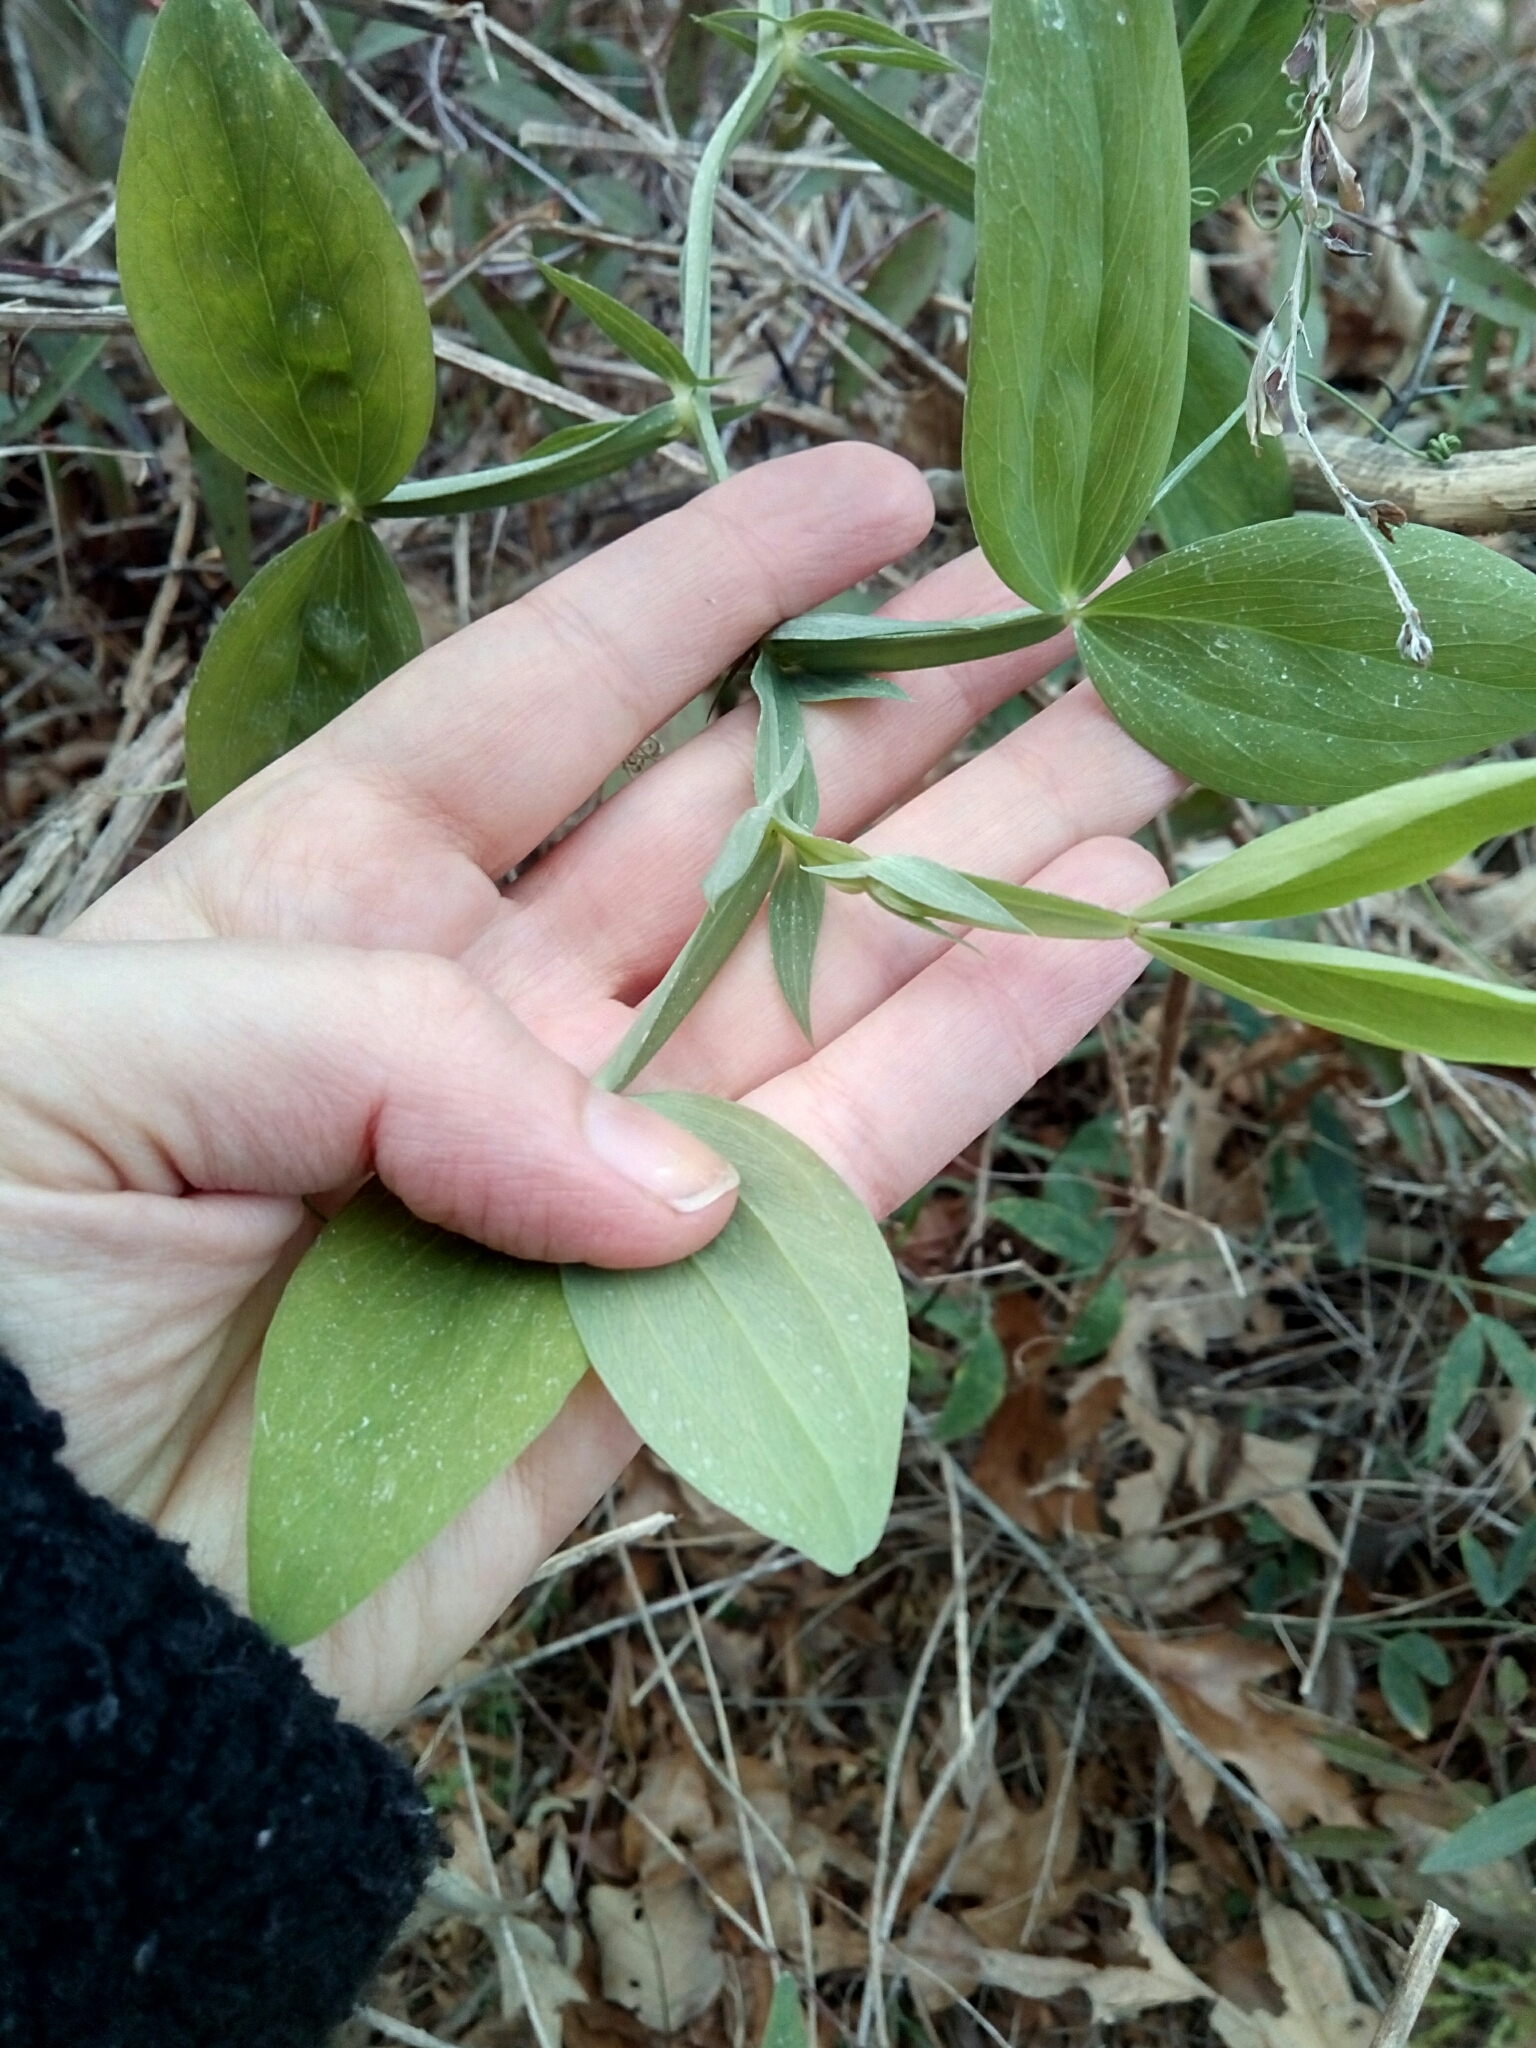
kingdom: Plantae
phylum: Tracheophyta
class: Magnoliopsida
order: Fabales
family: Fabaceae
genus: Lathyrus
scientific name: Lathyrus latifolius
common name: Perennial pea
